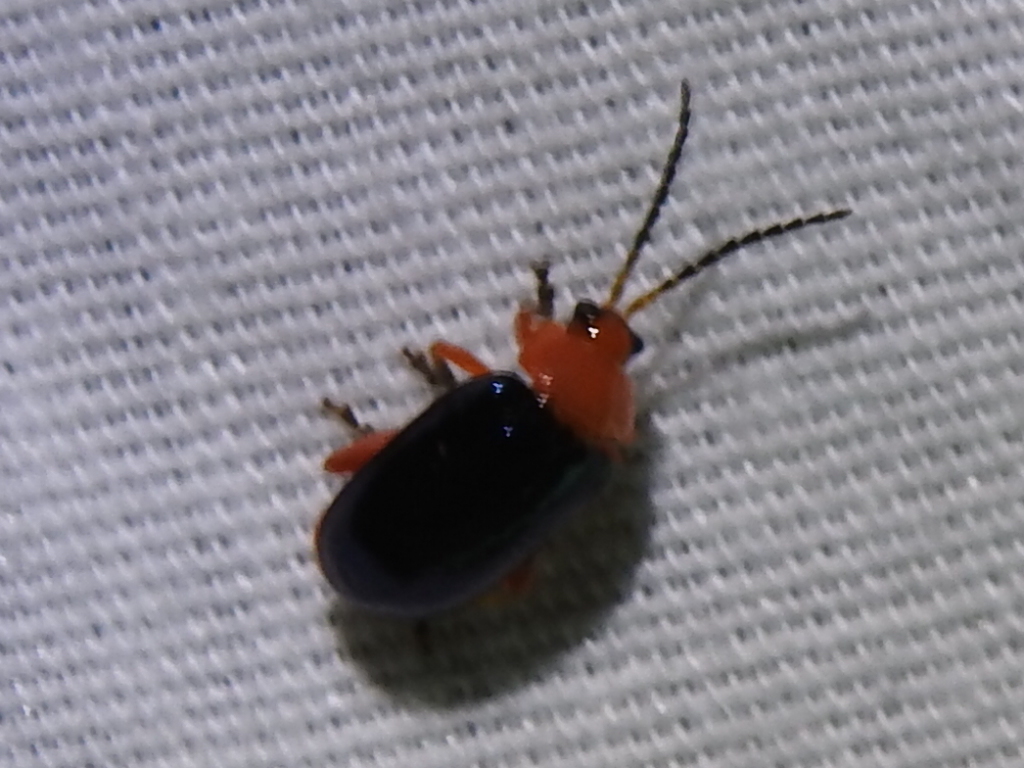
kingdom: Animalia
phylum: Arthropoda
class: Insecta
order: Coleoptera
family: Chrysomelidae
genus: Asphaera
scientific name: Asphaera lustrans
